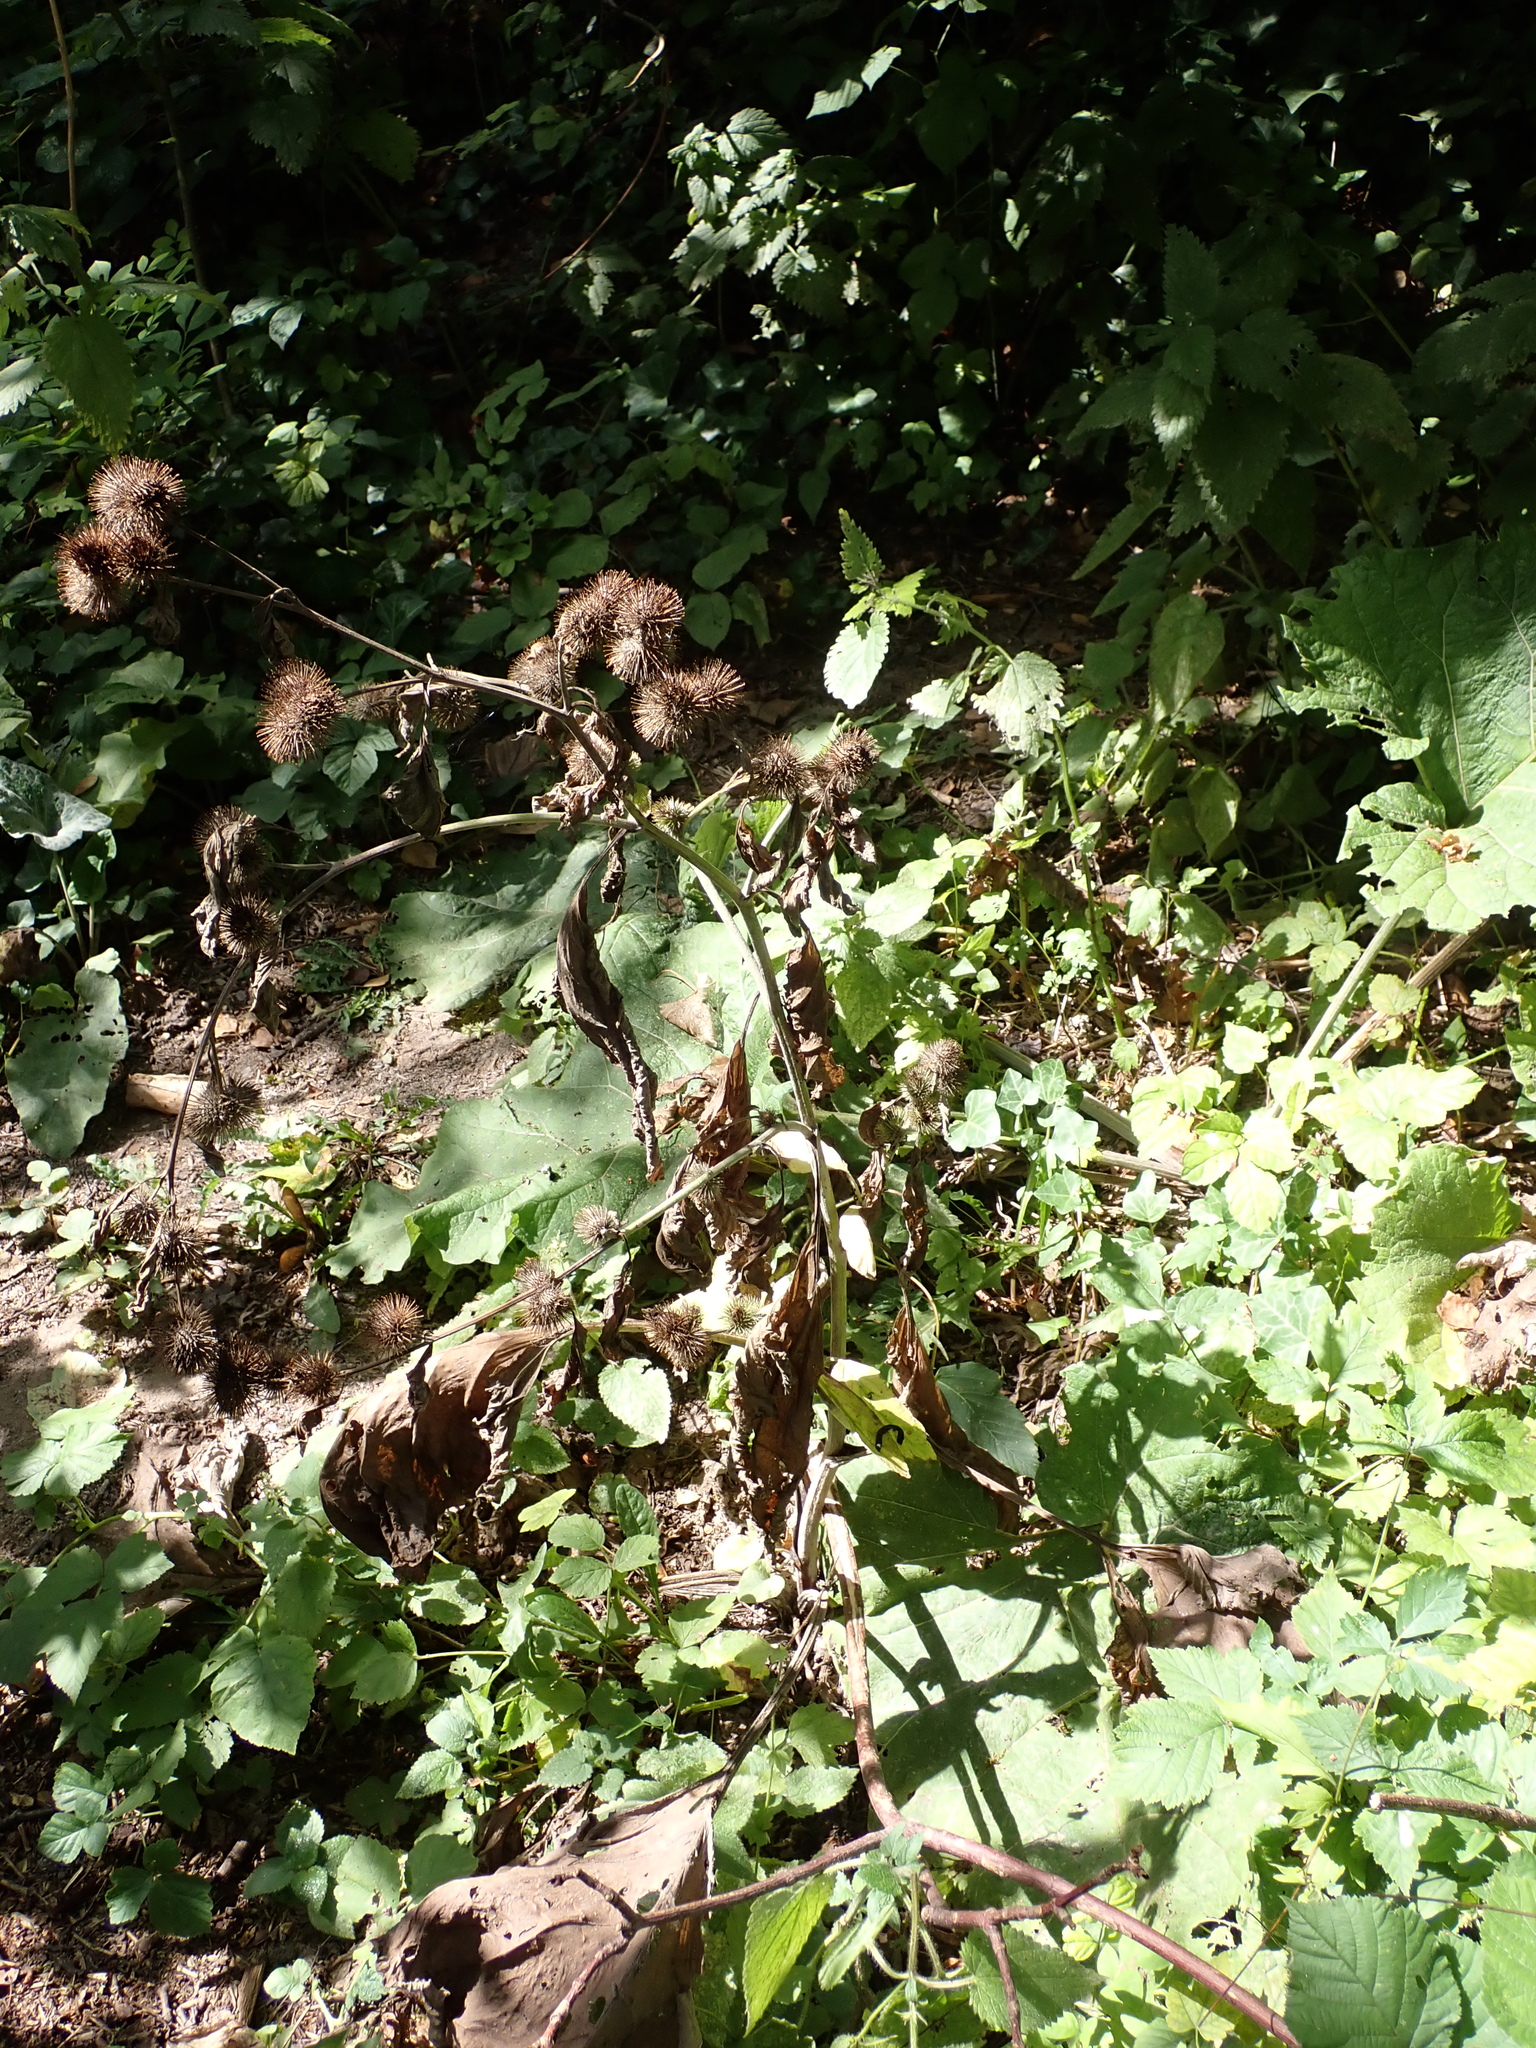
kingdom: Plantae
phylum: Tracheophyta
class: Magnoliopsida
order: Asterales
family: Asteraceae
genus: Arctium
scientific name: Arctium minus
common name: Lesser burdock
